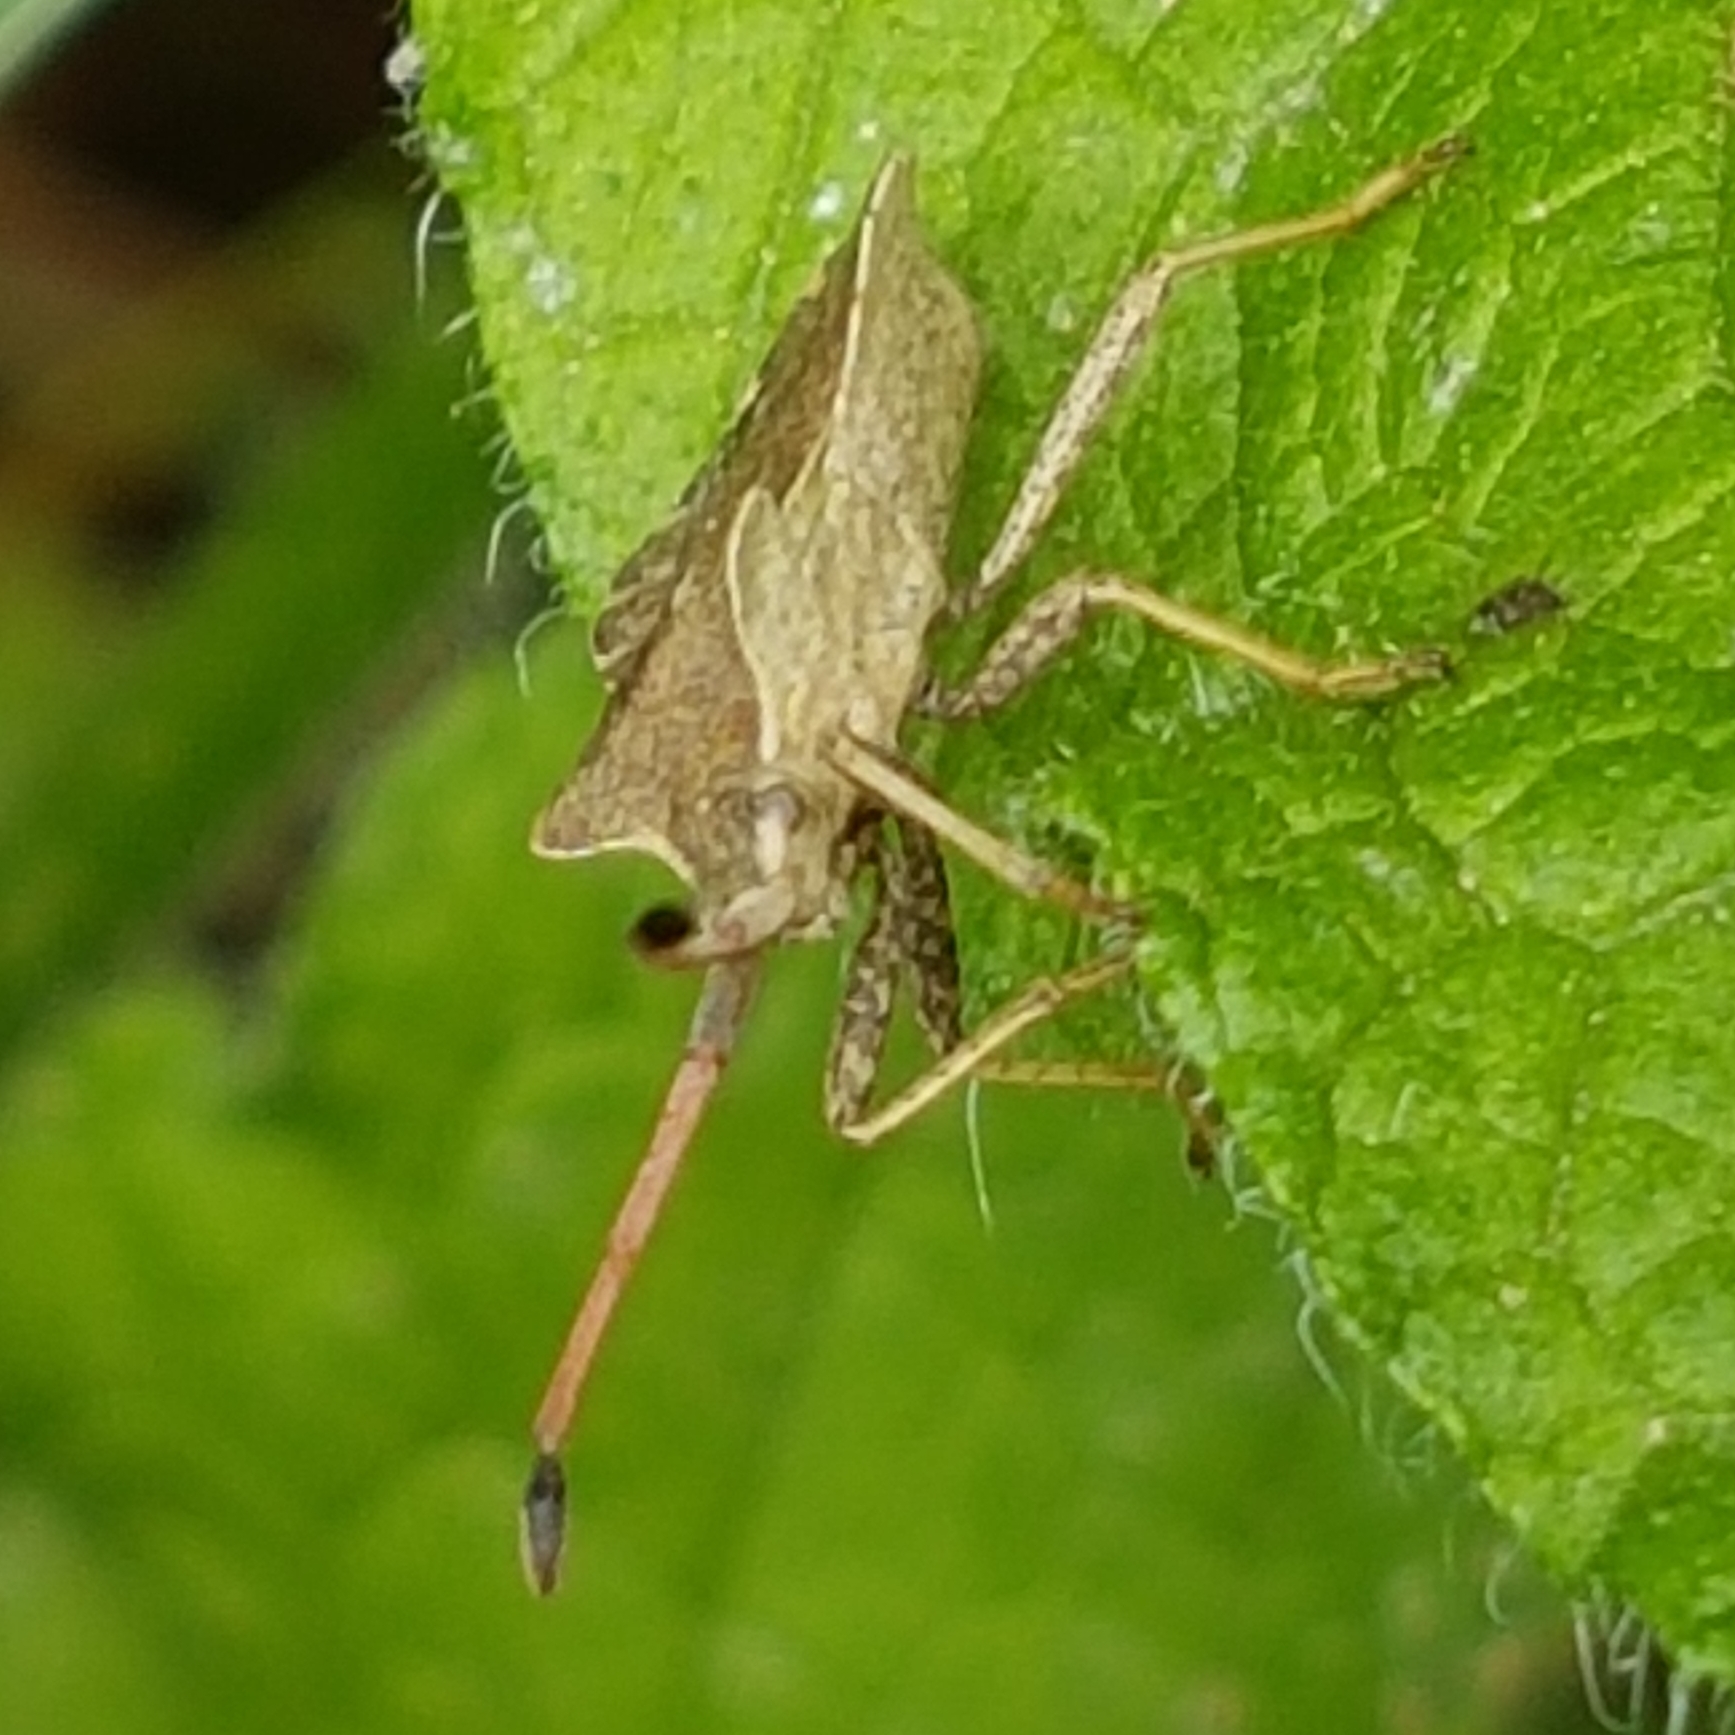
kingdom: Animalia
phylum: Arthropoda
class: Insecta
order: Hemiptera
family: Coreidae
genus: Enoplops
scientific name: Enoplops scapha
